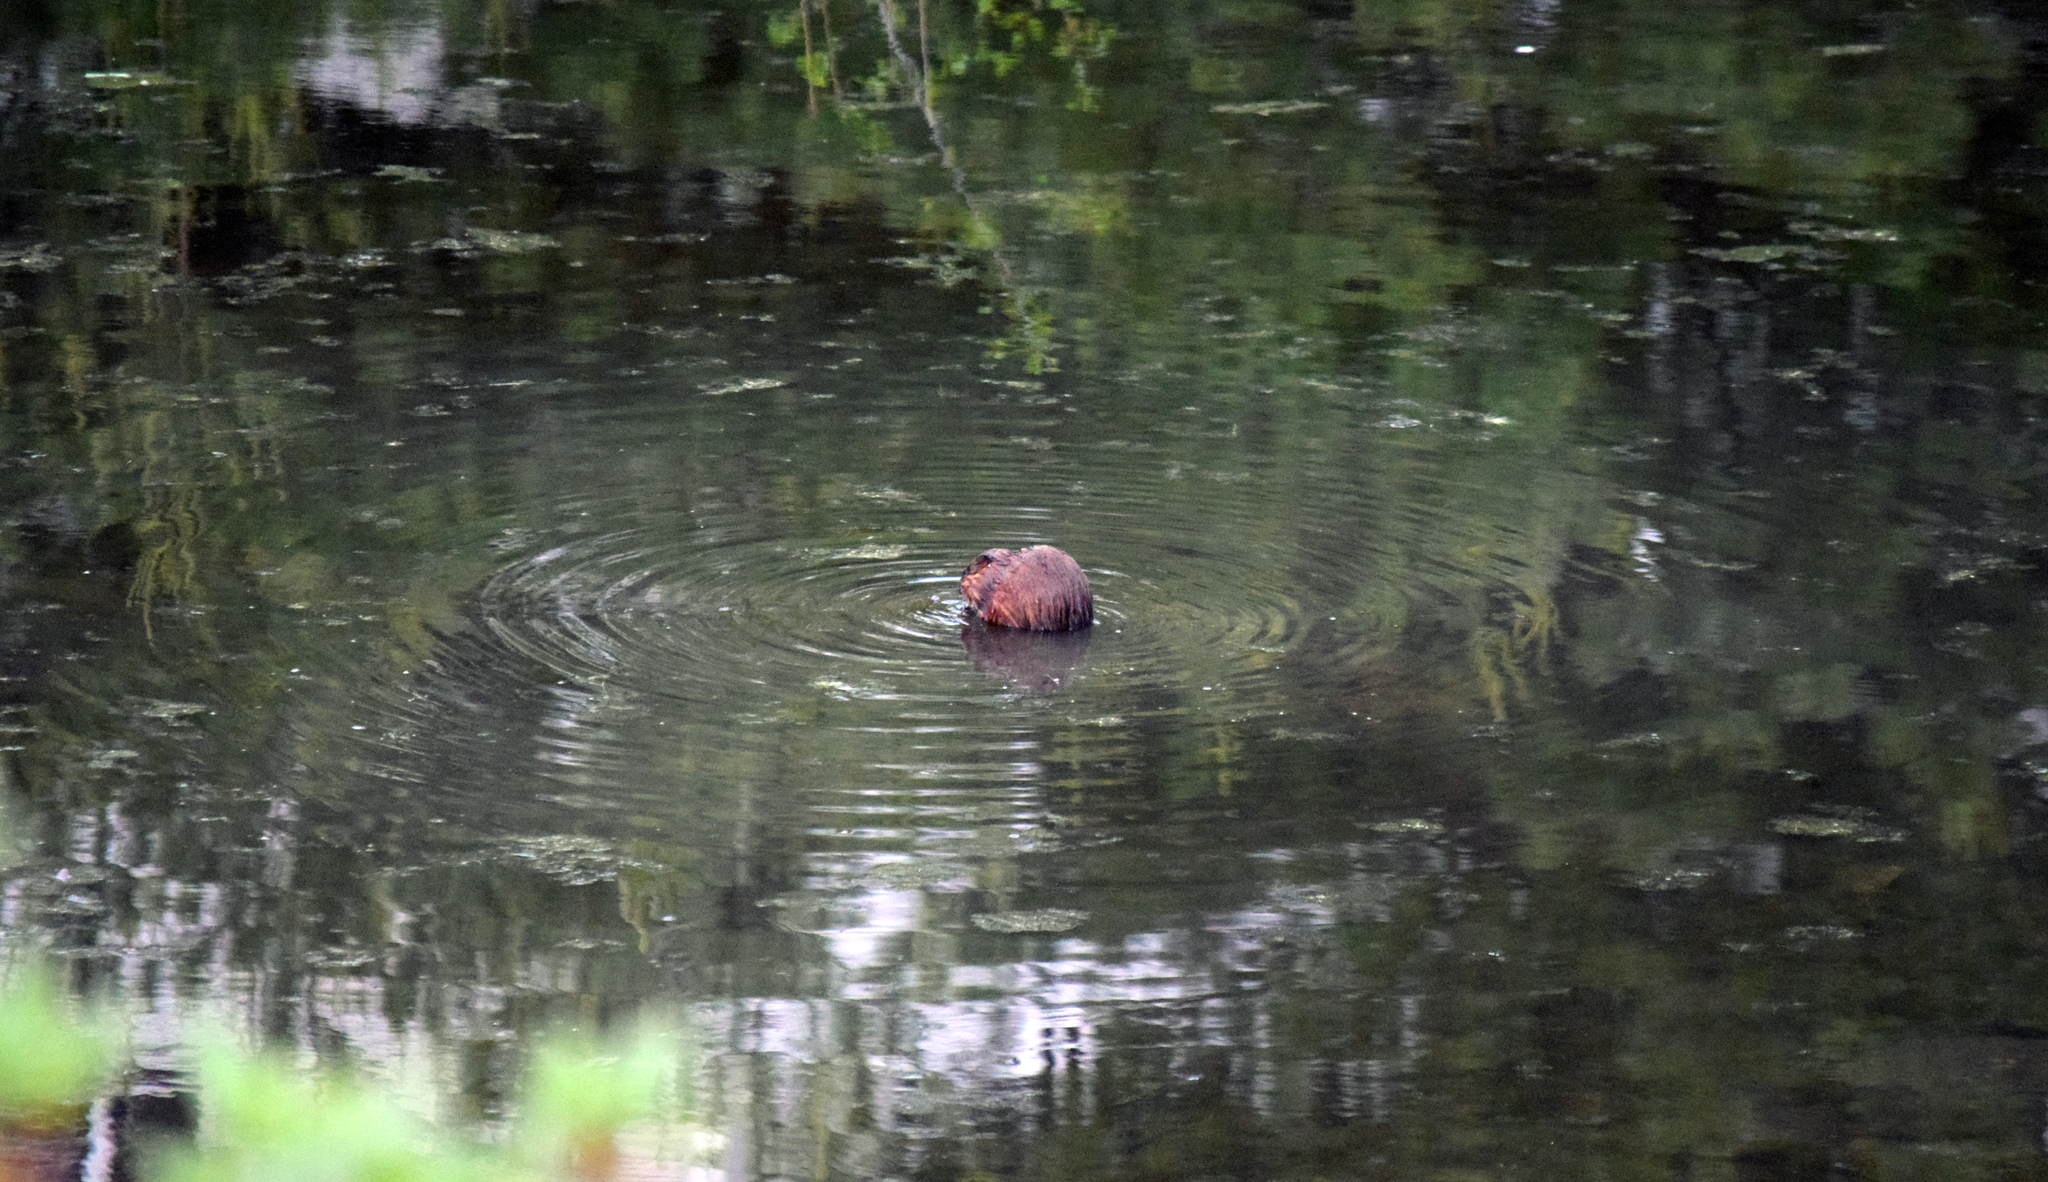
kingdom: Animalia
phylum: Chordata
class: Mammalia
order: Rodentia
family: Cricetidae
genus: Ondatra
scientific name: Ondatra zibethicus
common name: Muskrat
